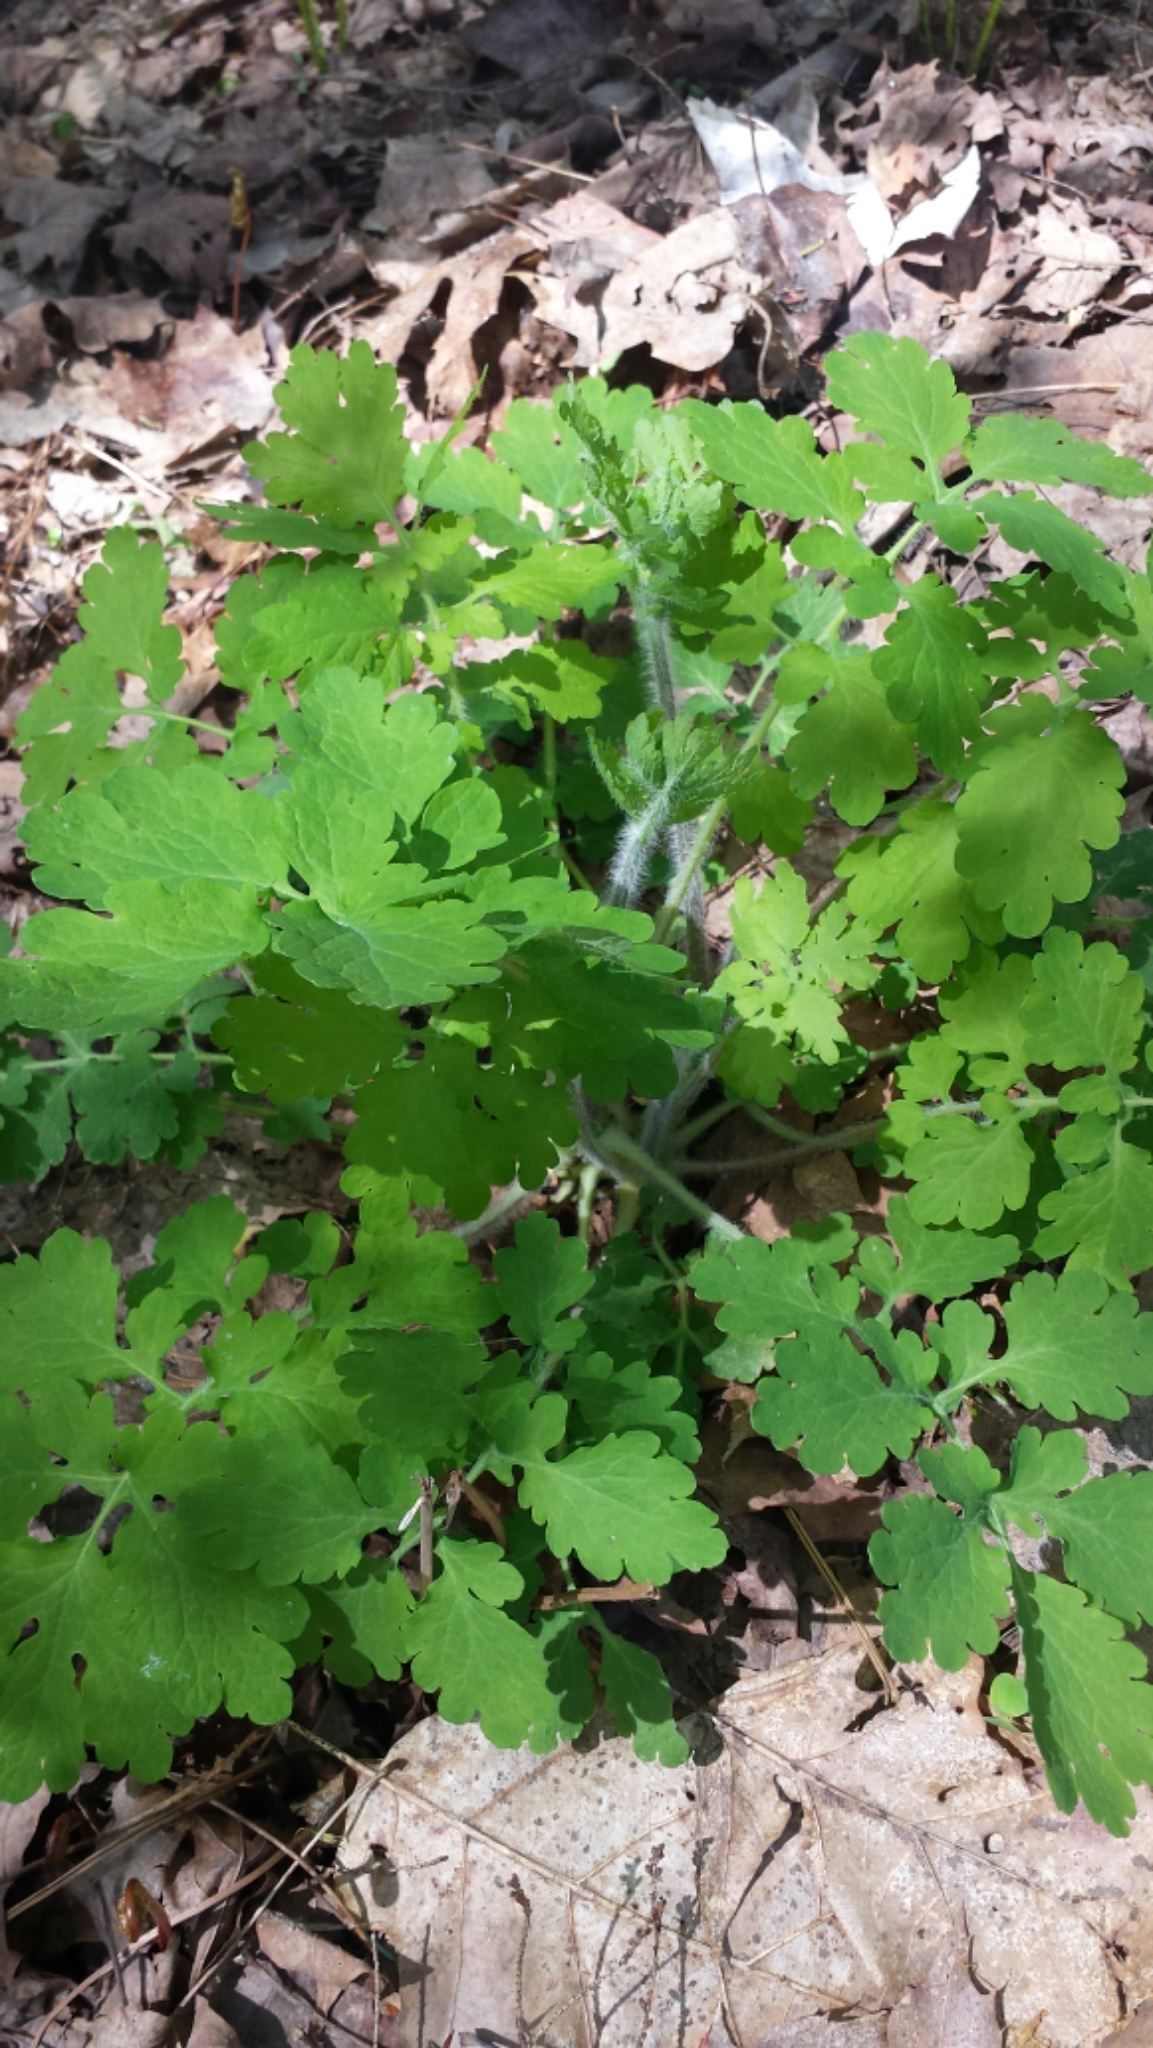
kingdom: Plantae
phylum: Tracheophyta
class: Magnoliopsida
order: Ranunculales
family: Papaveraceae
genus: Chelidonium
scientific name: Chelidonium majus
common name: Greater celandine
